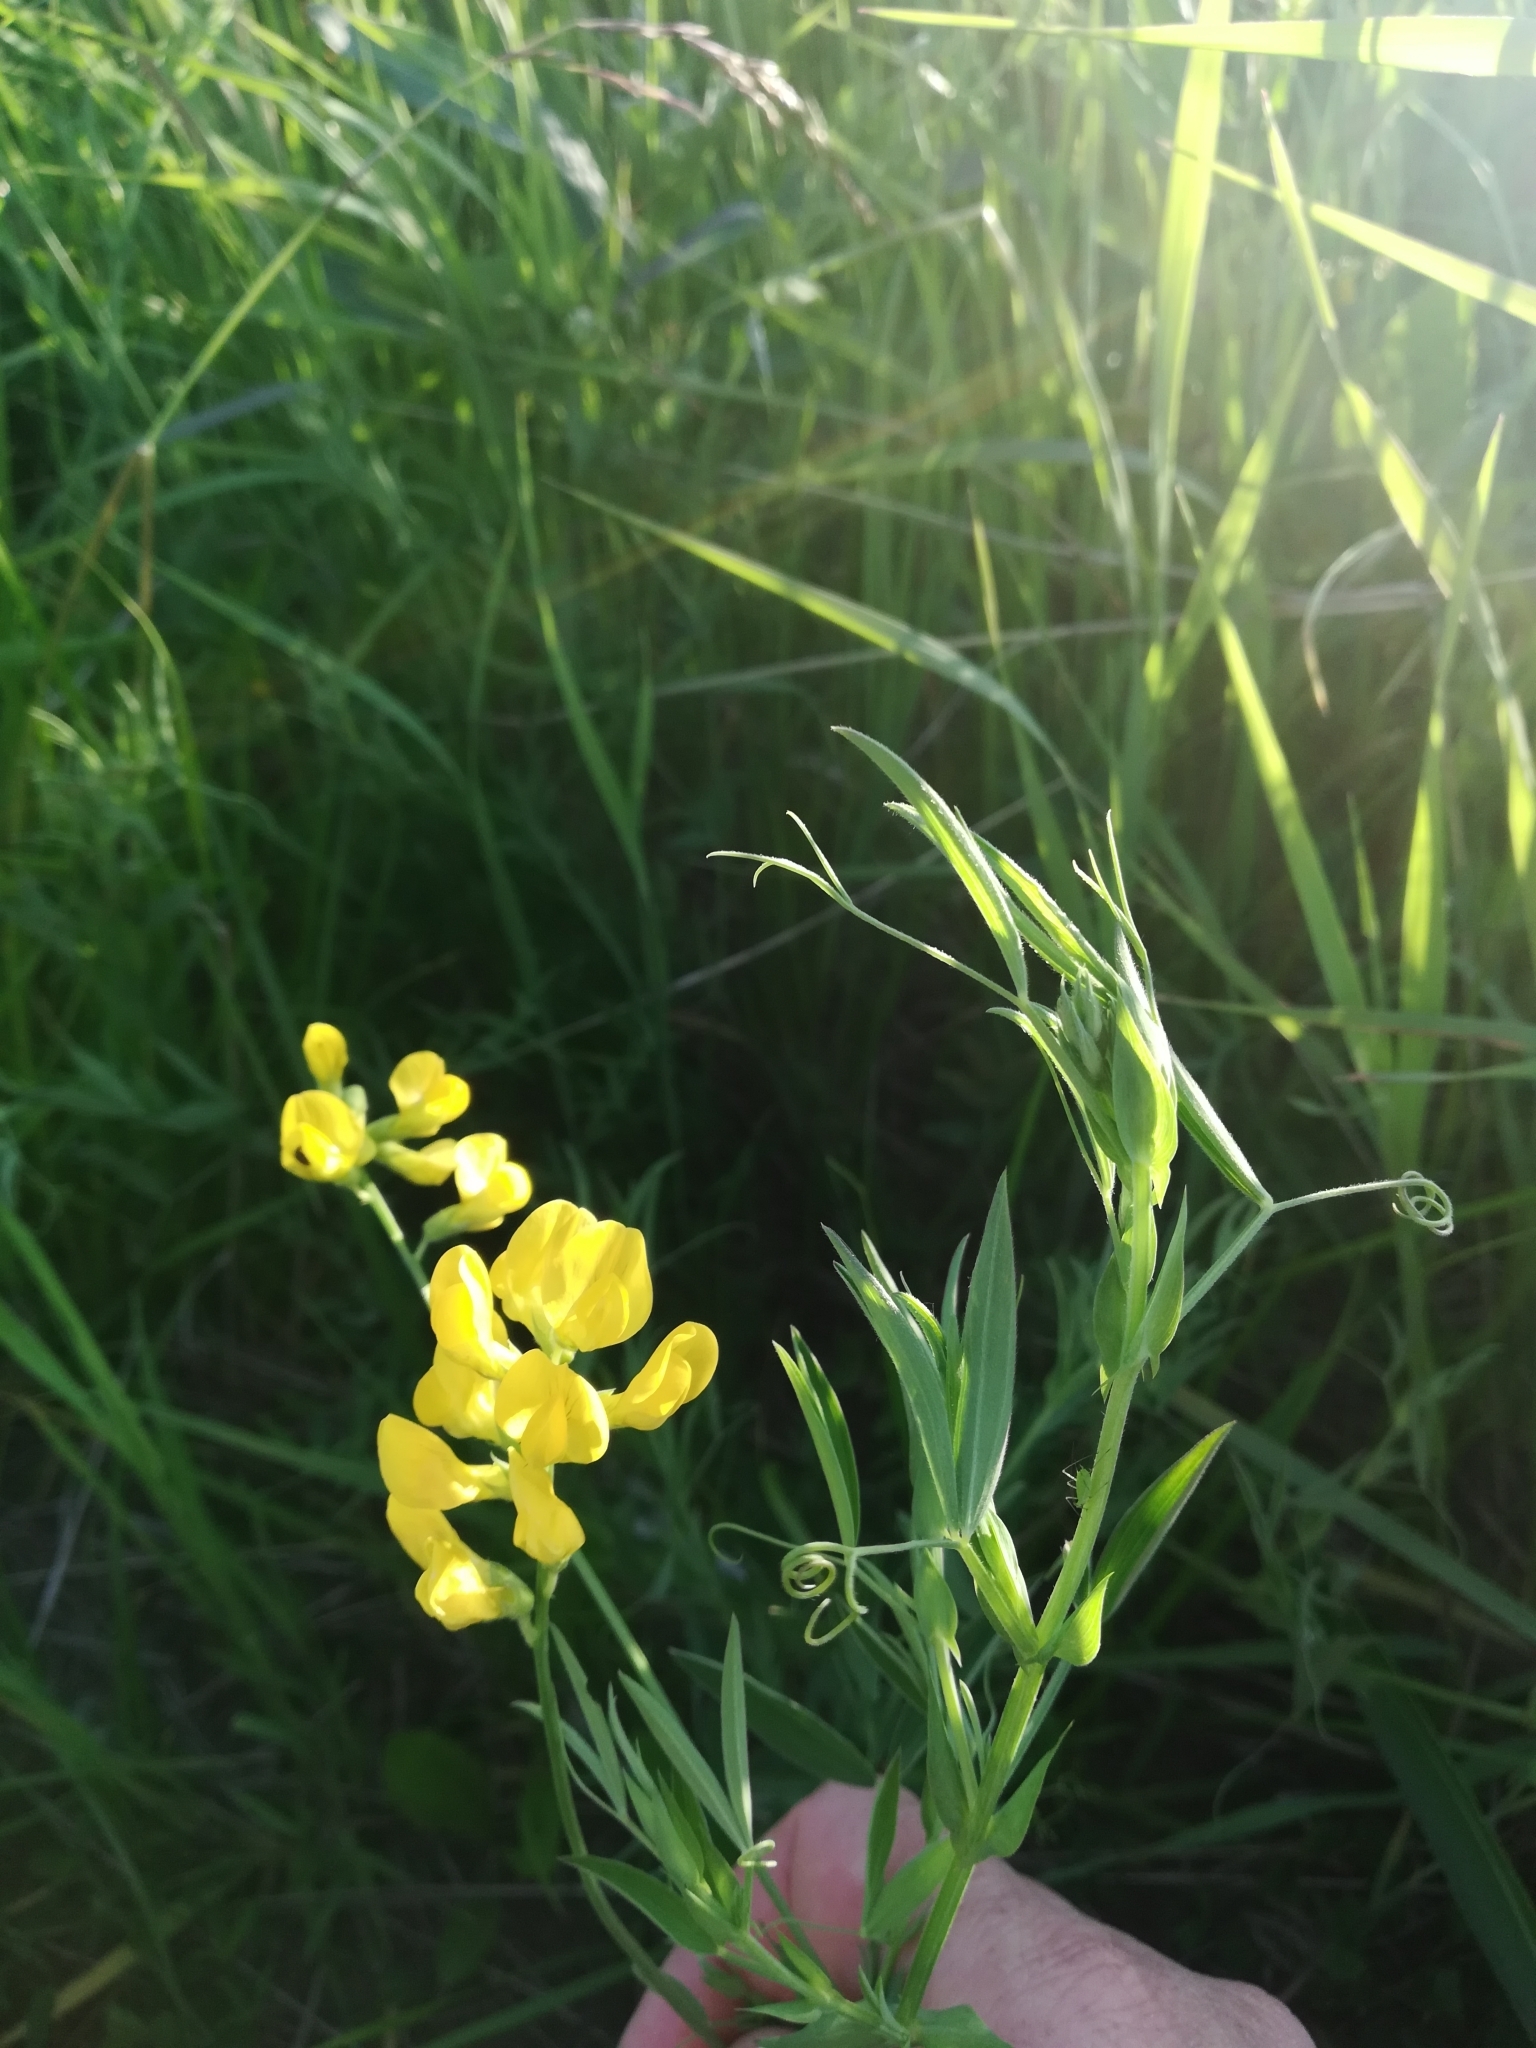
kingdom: Plantae
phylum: Tracheophyta
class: Magnoliopsida
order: Fabales
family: Fabaceae
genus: Lathyrus
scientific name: Lathyrus pratensis
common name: Meadow vetchling
